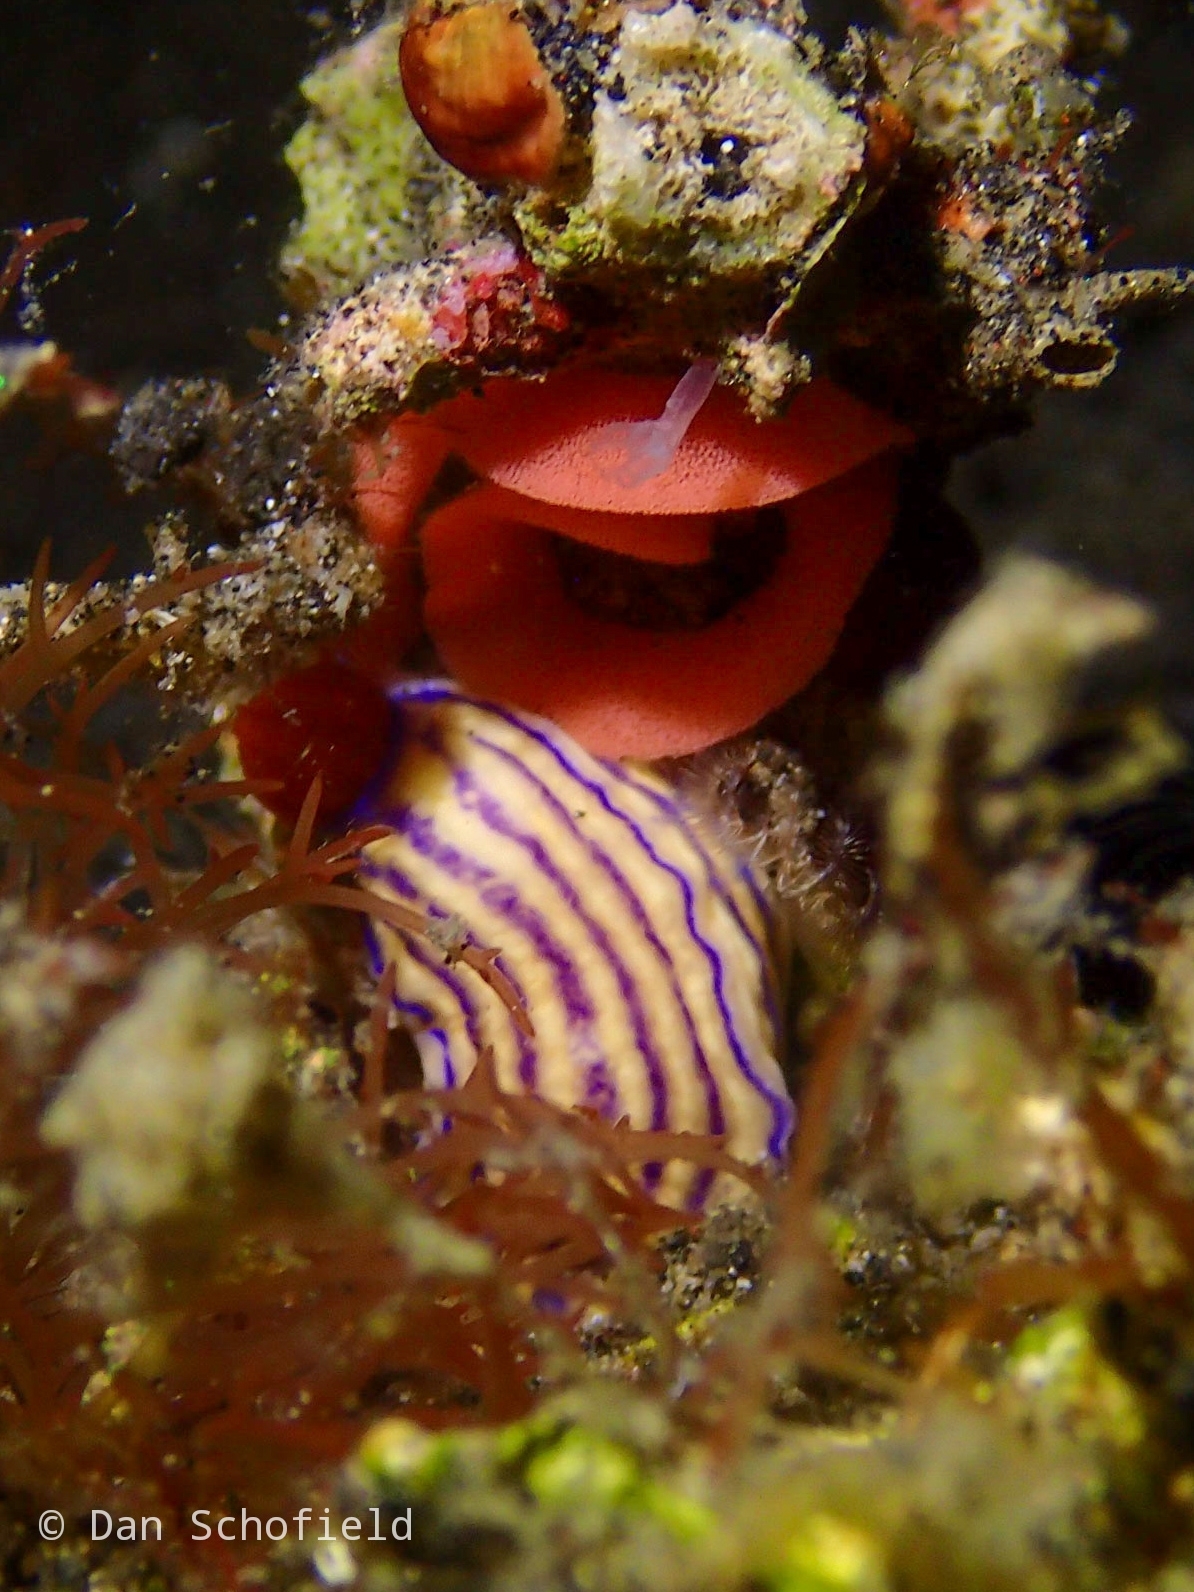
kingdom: Animalia
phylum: Mollusca
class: Gastropoda
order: Nudibranchia
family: Chromodorididae
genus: Hypselodoris
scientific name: Hypselodoris emma
